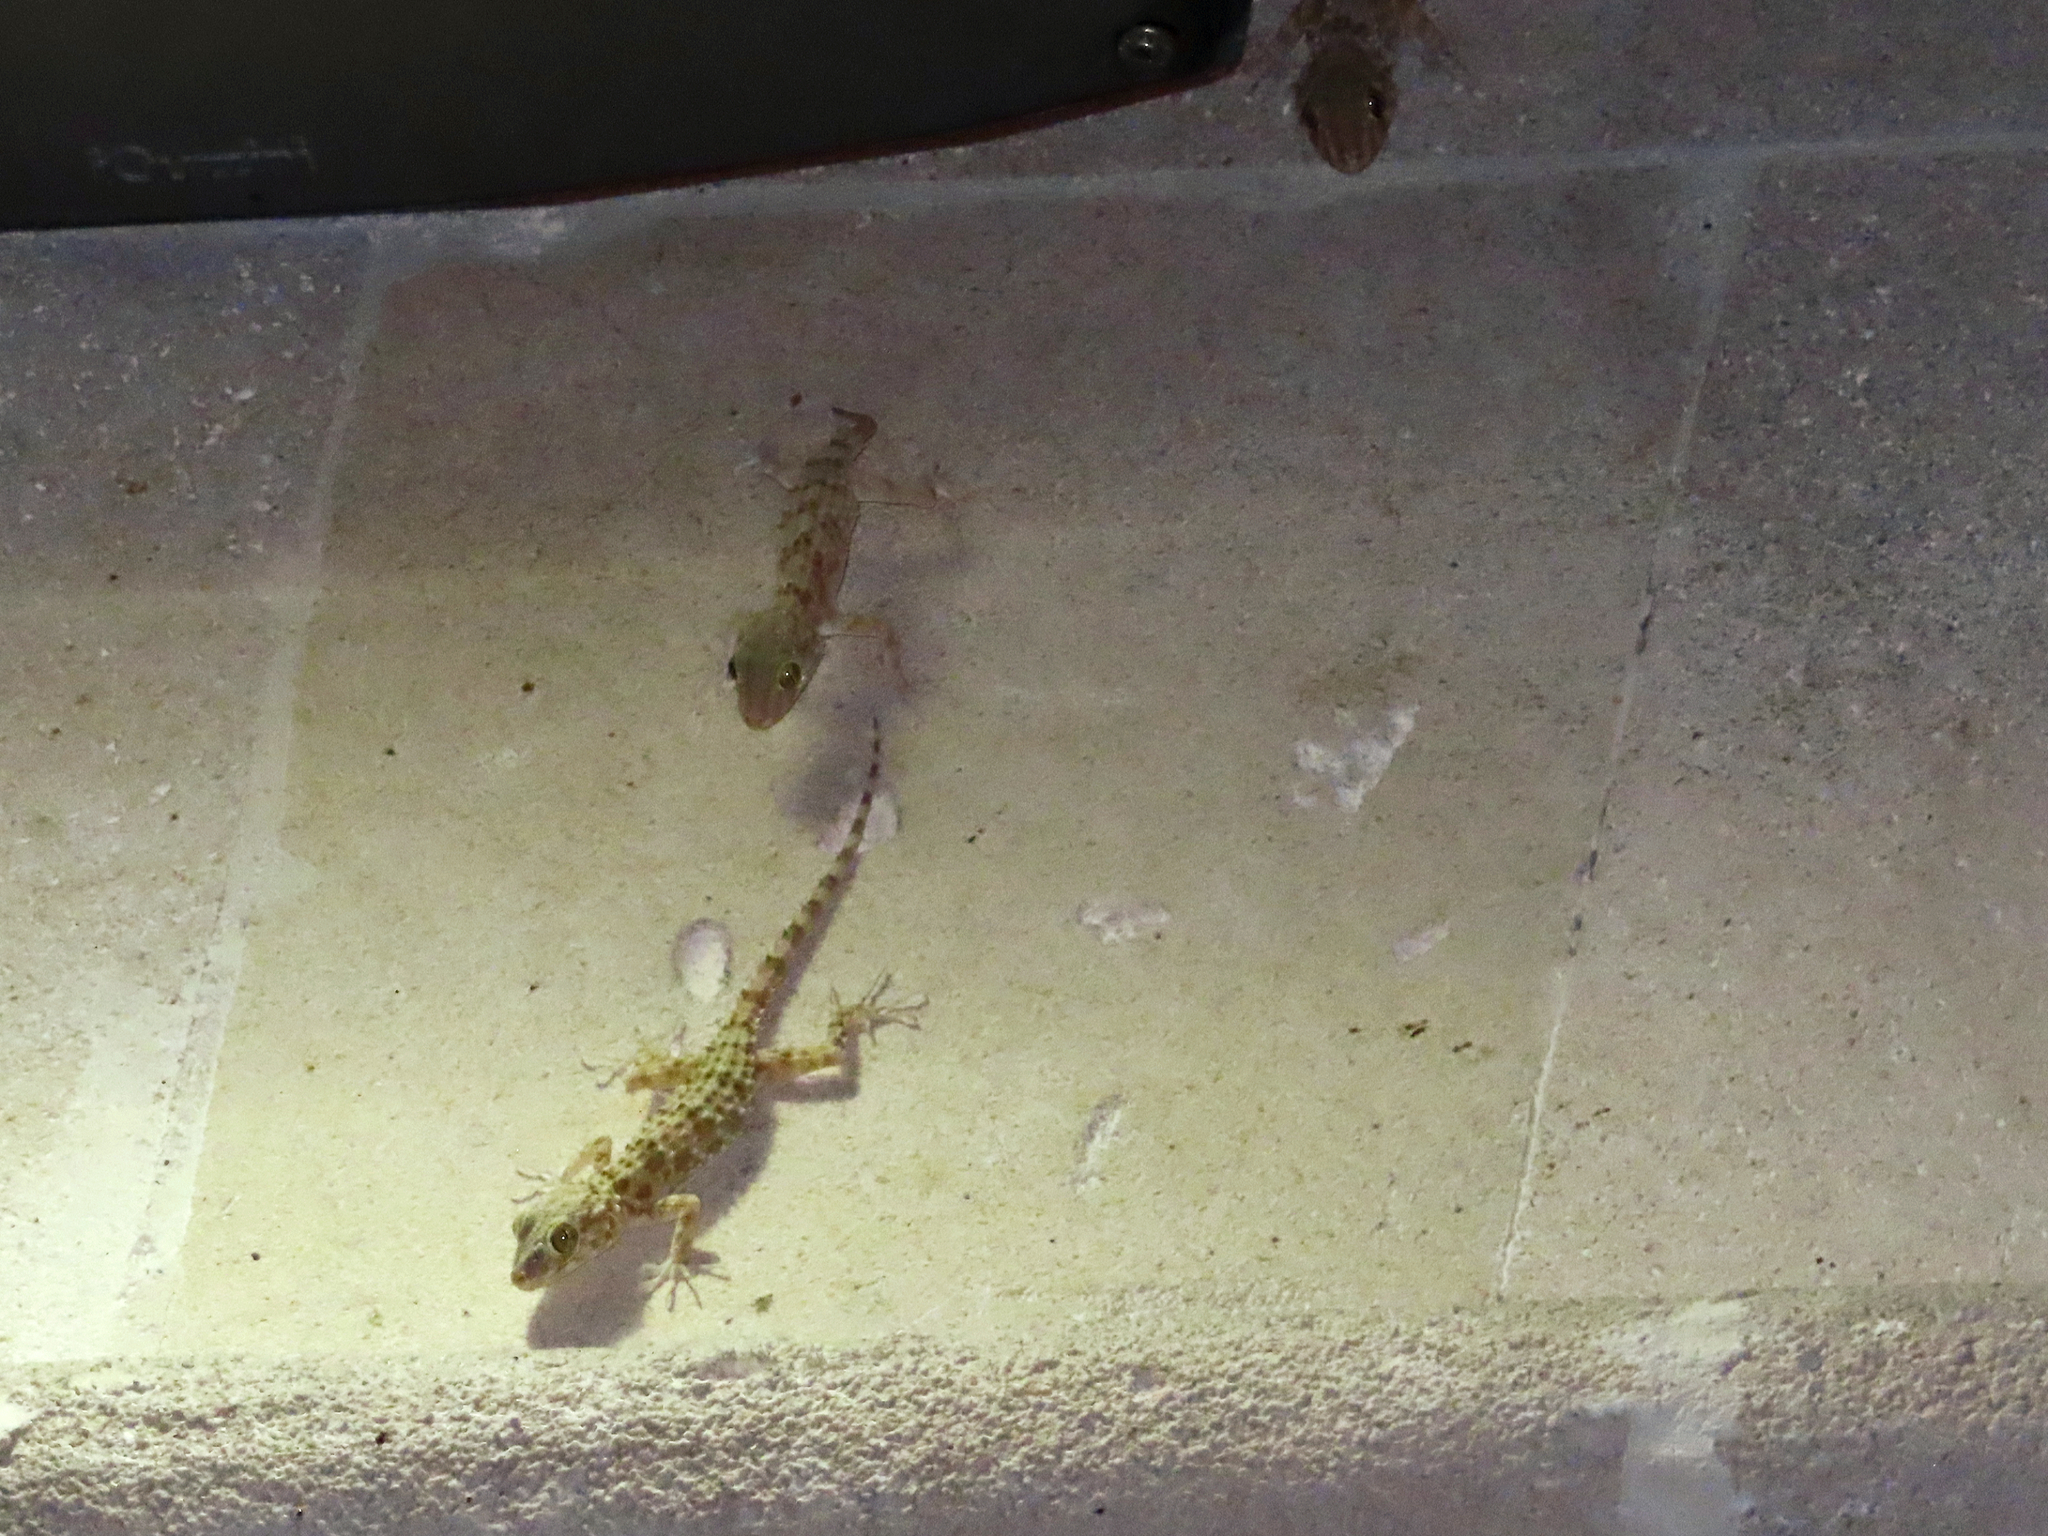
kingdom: Animalia
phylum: Chordata
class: Squamata
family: Gekkonidae
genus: Tenuidactylus
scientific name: Tenuidactylus caspius
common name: Caspian bent-toed gecko
